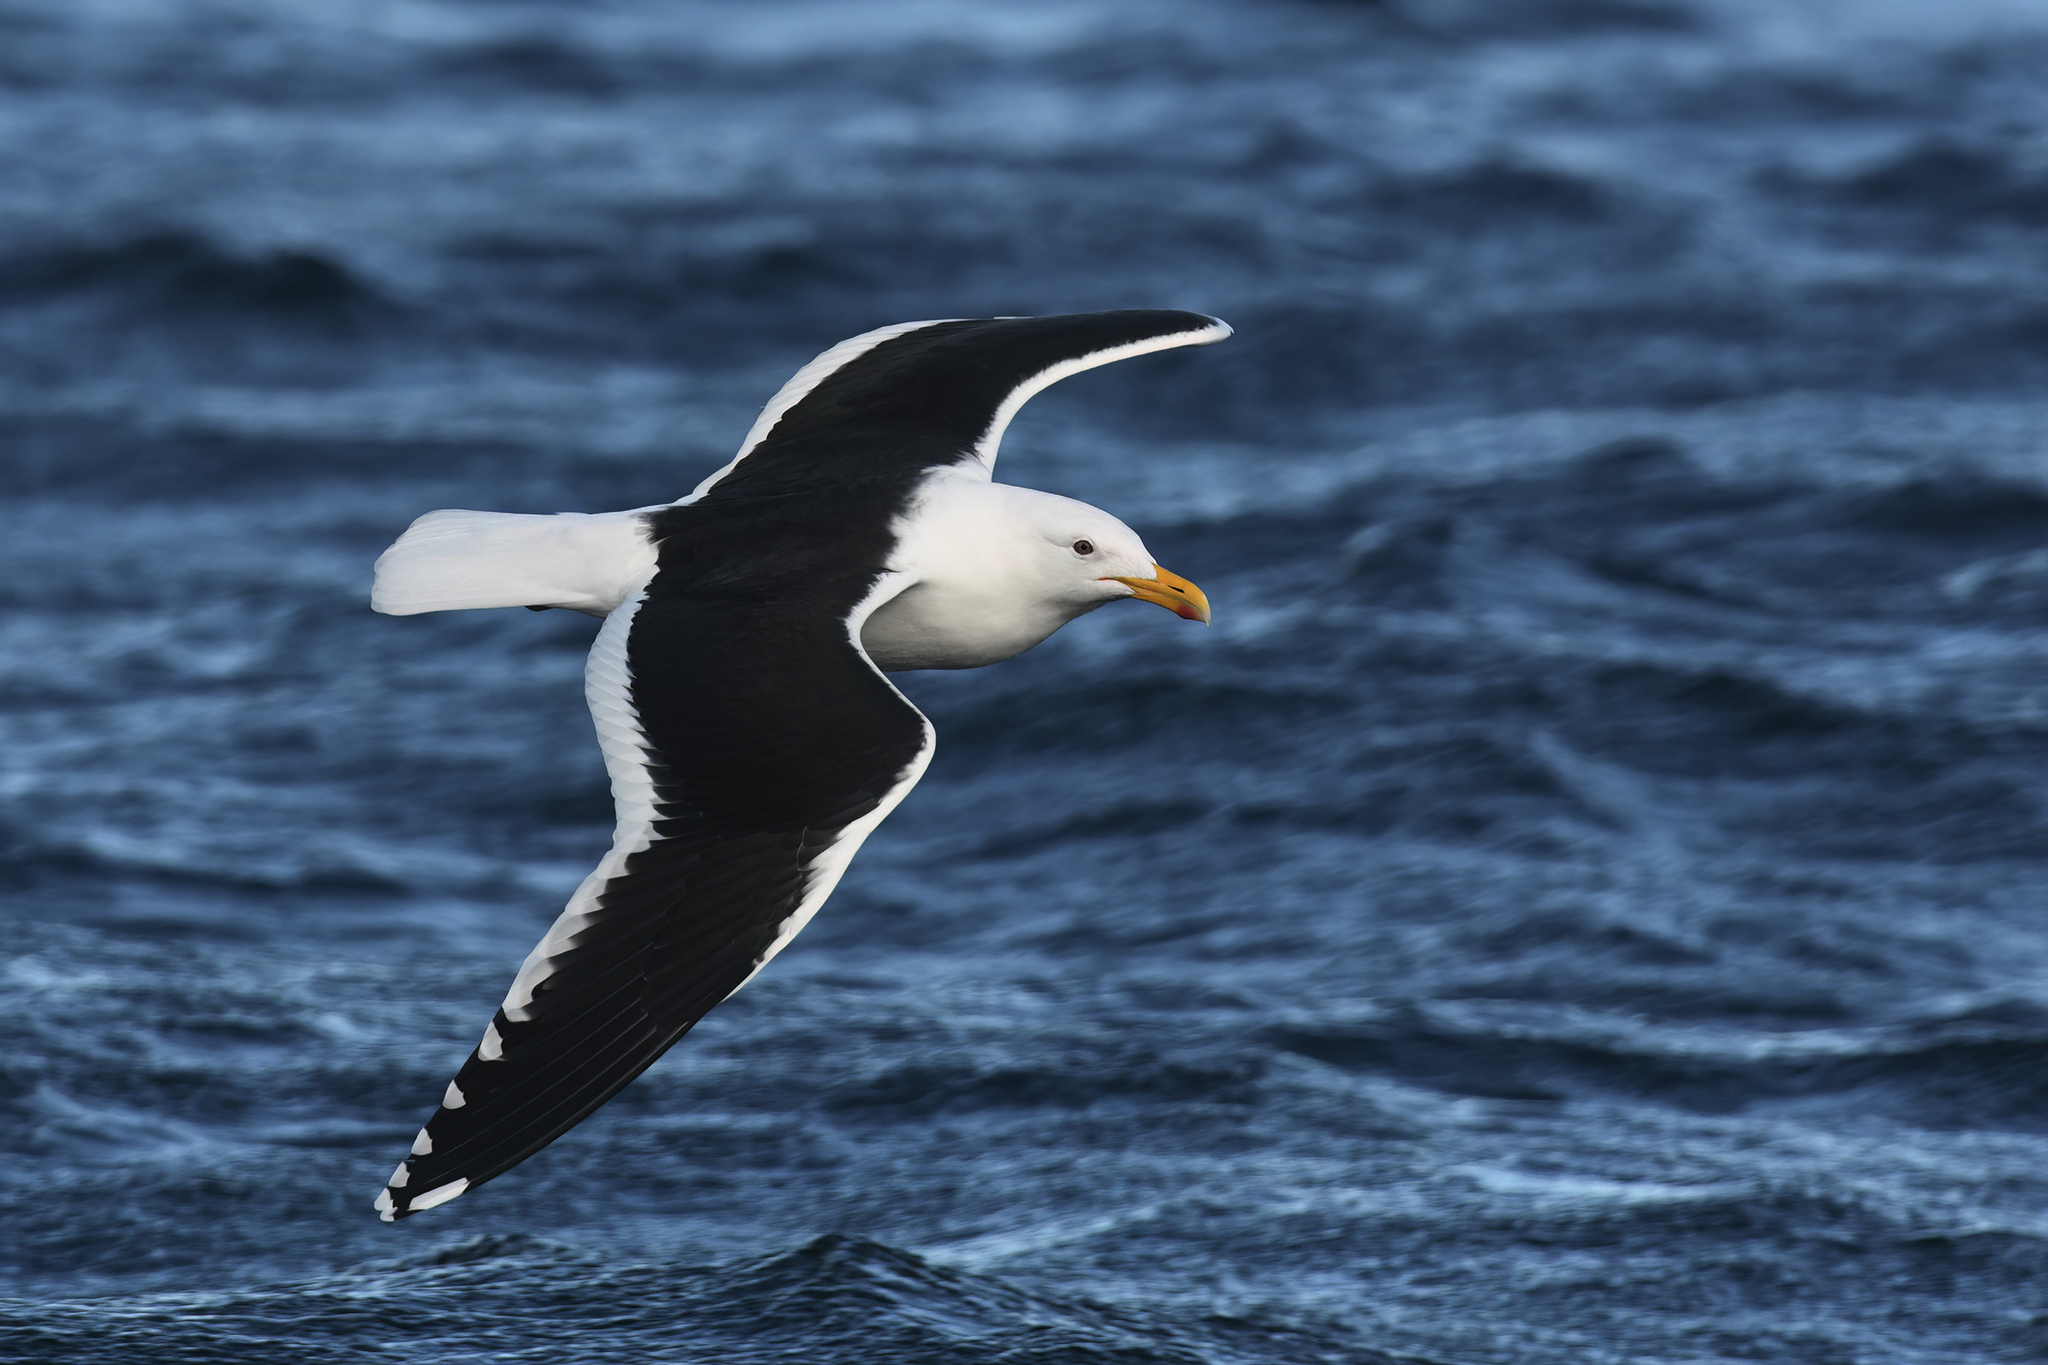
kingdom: Animalia
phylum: Chordata
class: Aves
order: Charadriiformes
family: Laridae
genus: Larus
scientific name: Larus dominicanus
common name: Kelp gull
